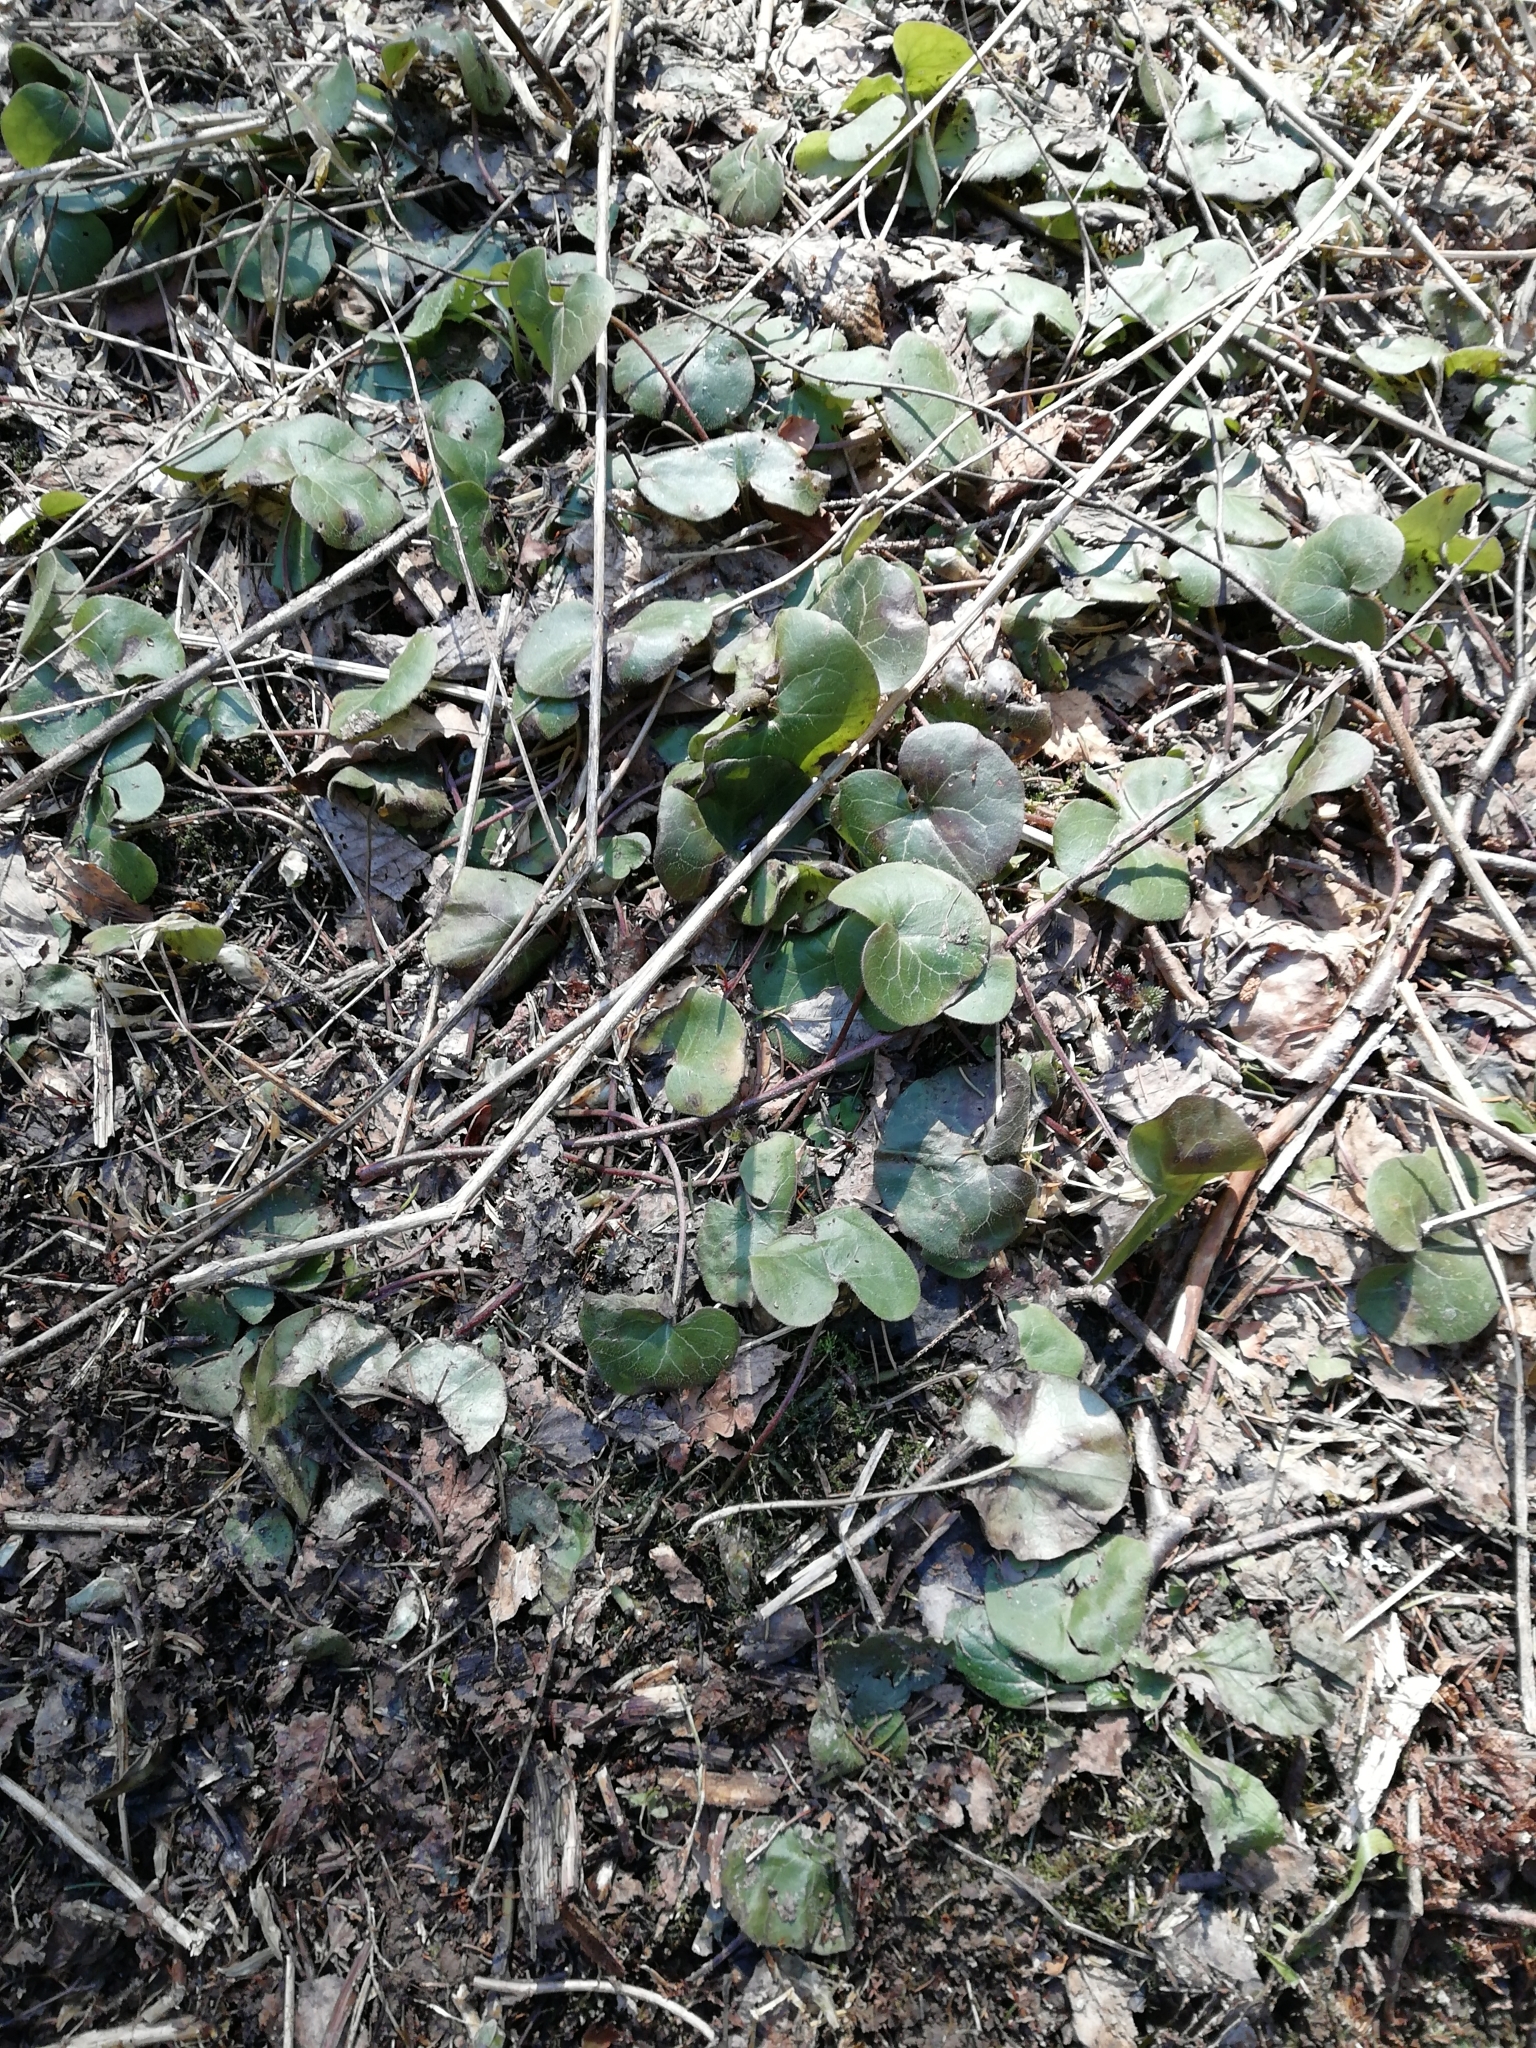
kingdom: Plantae
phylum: Tracheophyta
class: Magnoliopsida
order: Piperales
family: Aristolochiaceae
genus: Asarum
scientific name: Asarum europaeum
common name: Asarabacca
